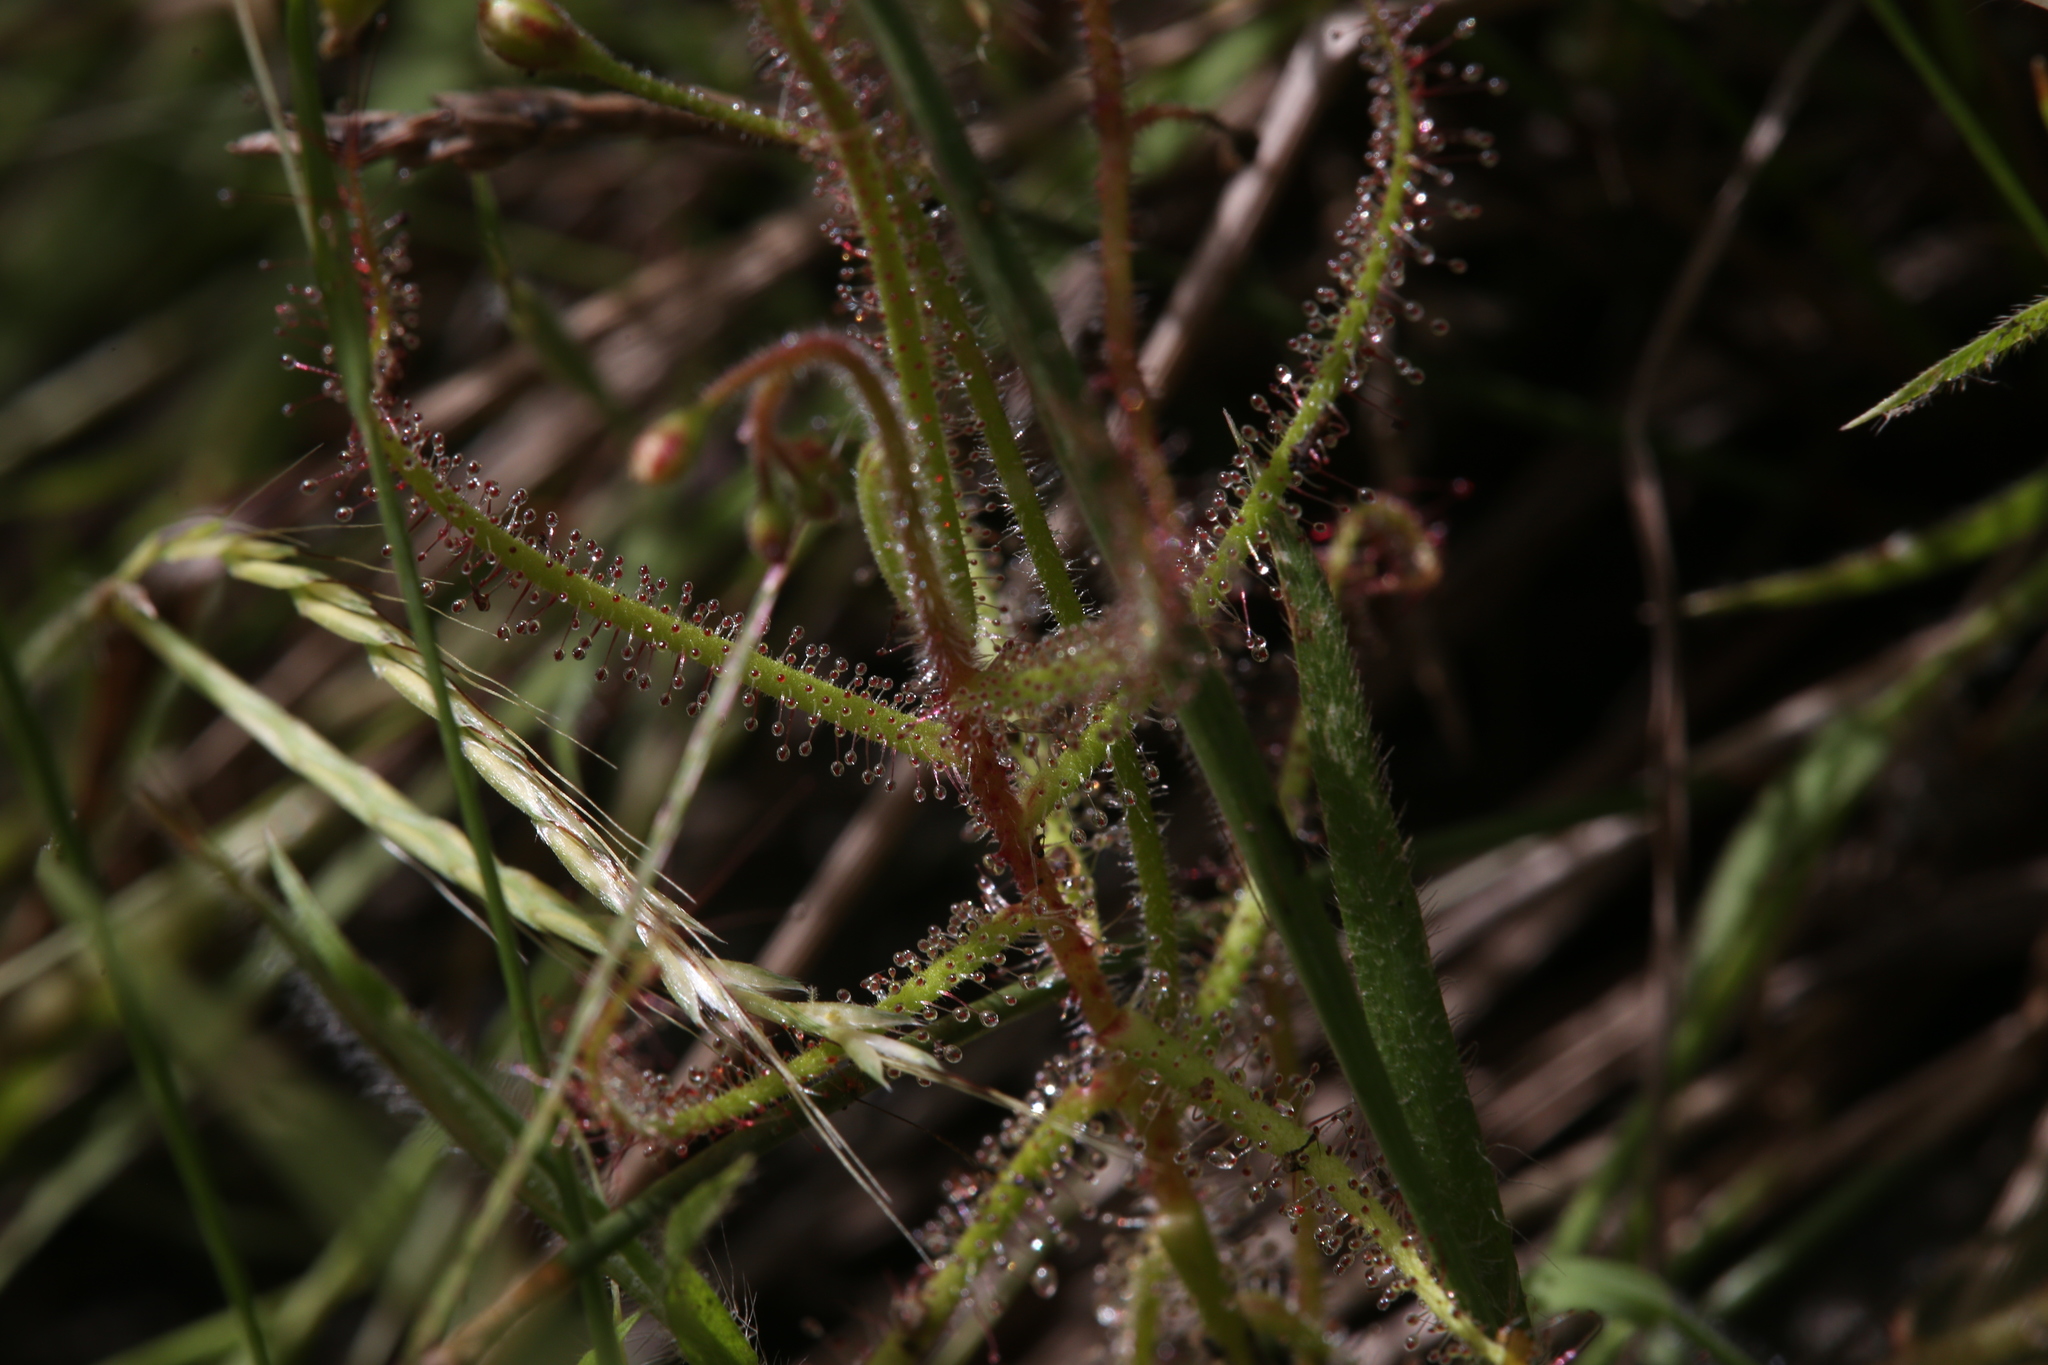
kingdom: Plantae
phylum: Tracheophyta
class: Magnoliopsida
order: Caryophyllales
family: Droseraceae
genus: Drosera
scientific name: Drosera aquatica
